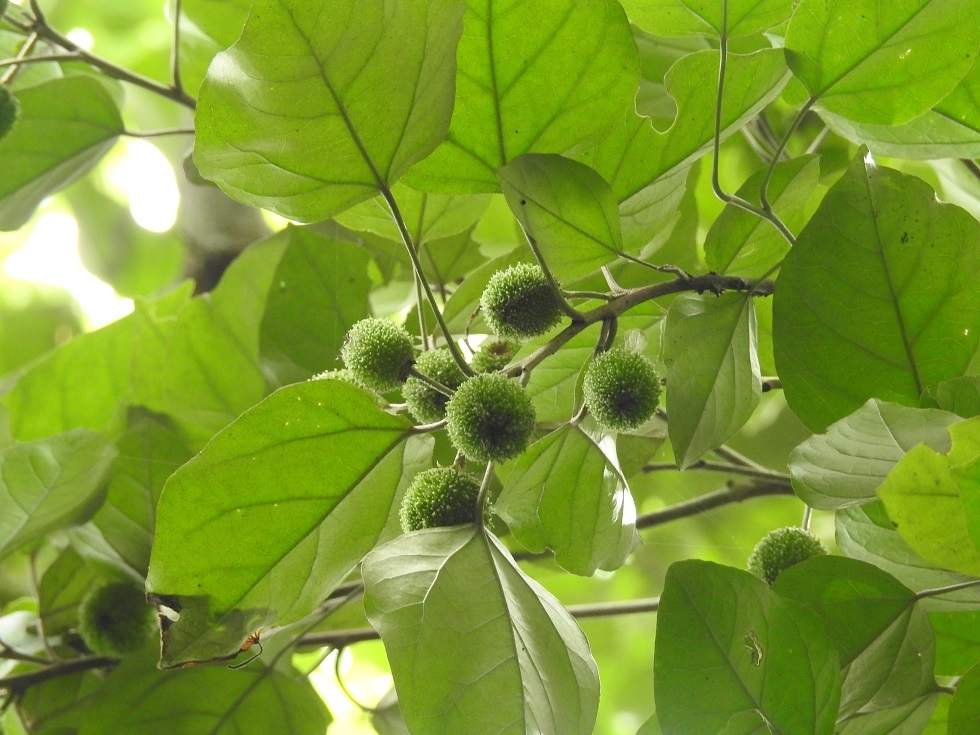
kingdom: Plantae
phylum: Tracheophyta
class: Magnoliopsida
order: Malpighiales
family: Euphorbiaceae
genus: Croton
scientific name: Croton guatemalensis
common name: Copalchi
